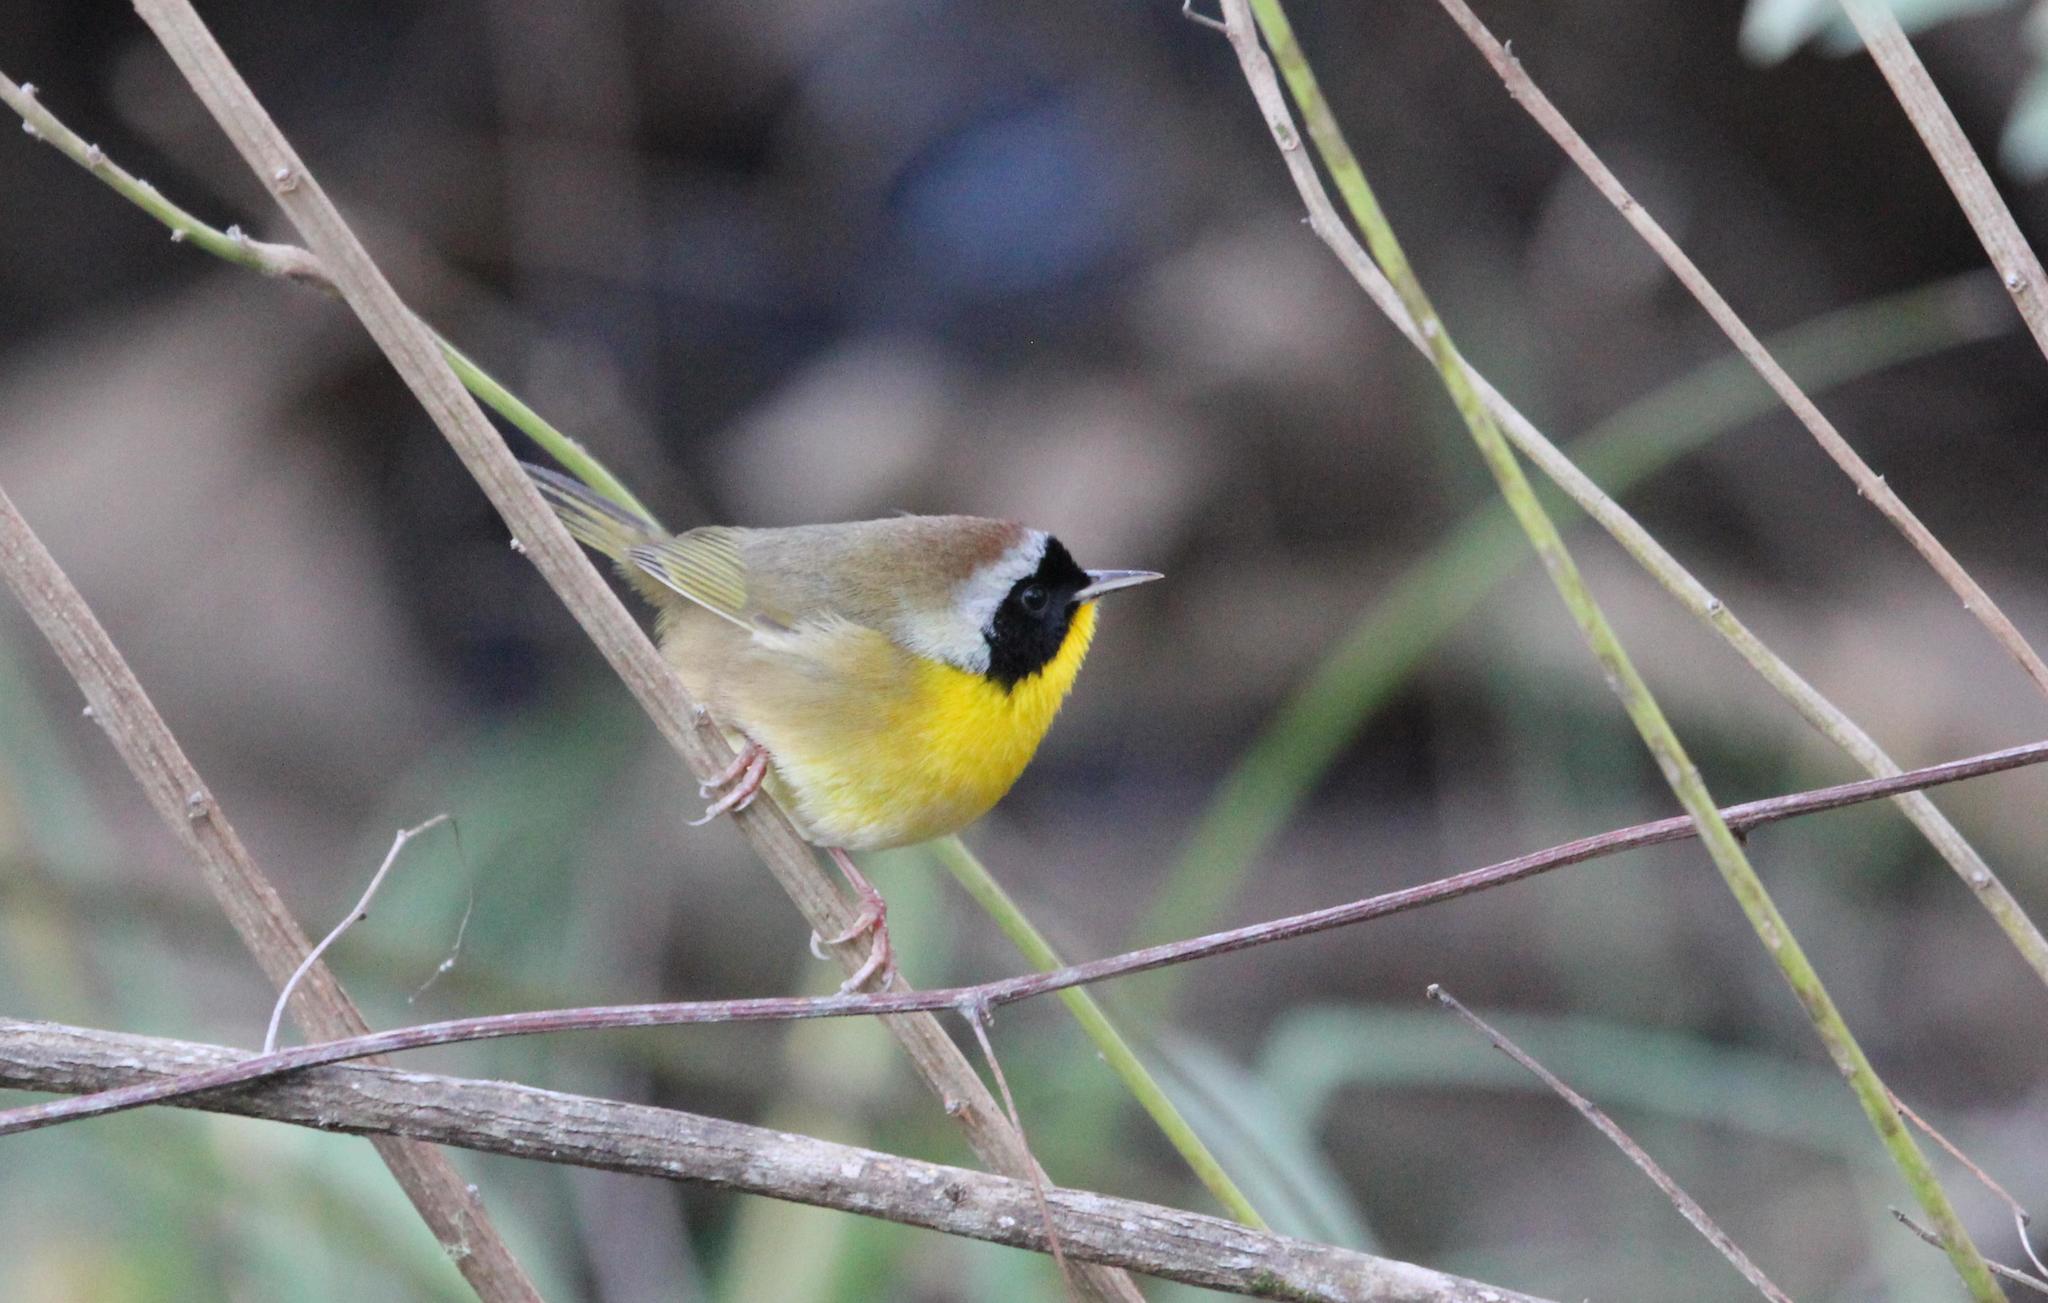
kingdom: Animalia
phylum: Chordata
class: Aves
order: Passeriformes
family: Parulidae
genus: Geothlypis
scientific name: Geothlypis trichas
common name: Common yellowthroat
